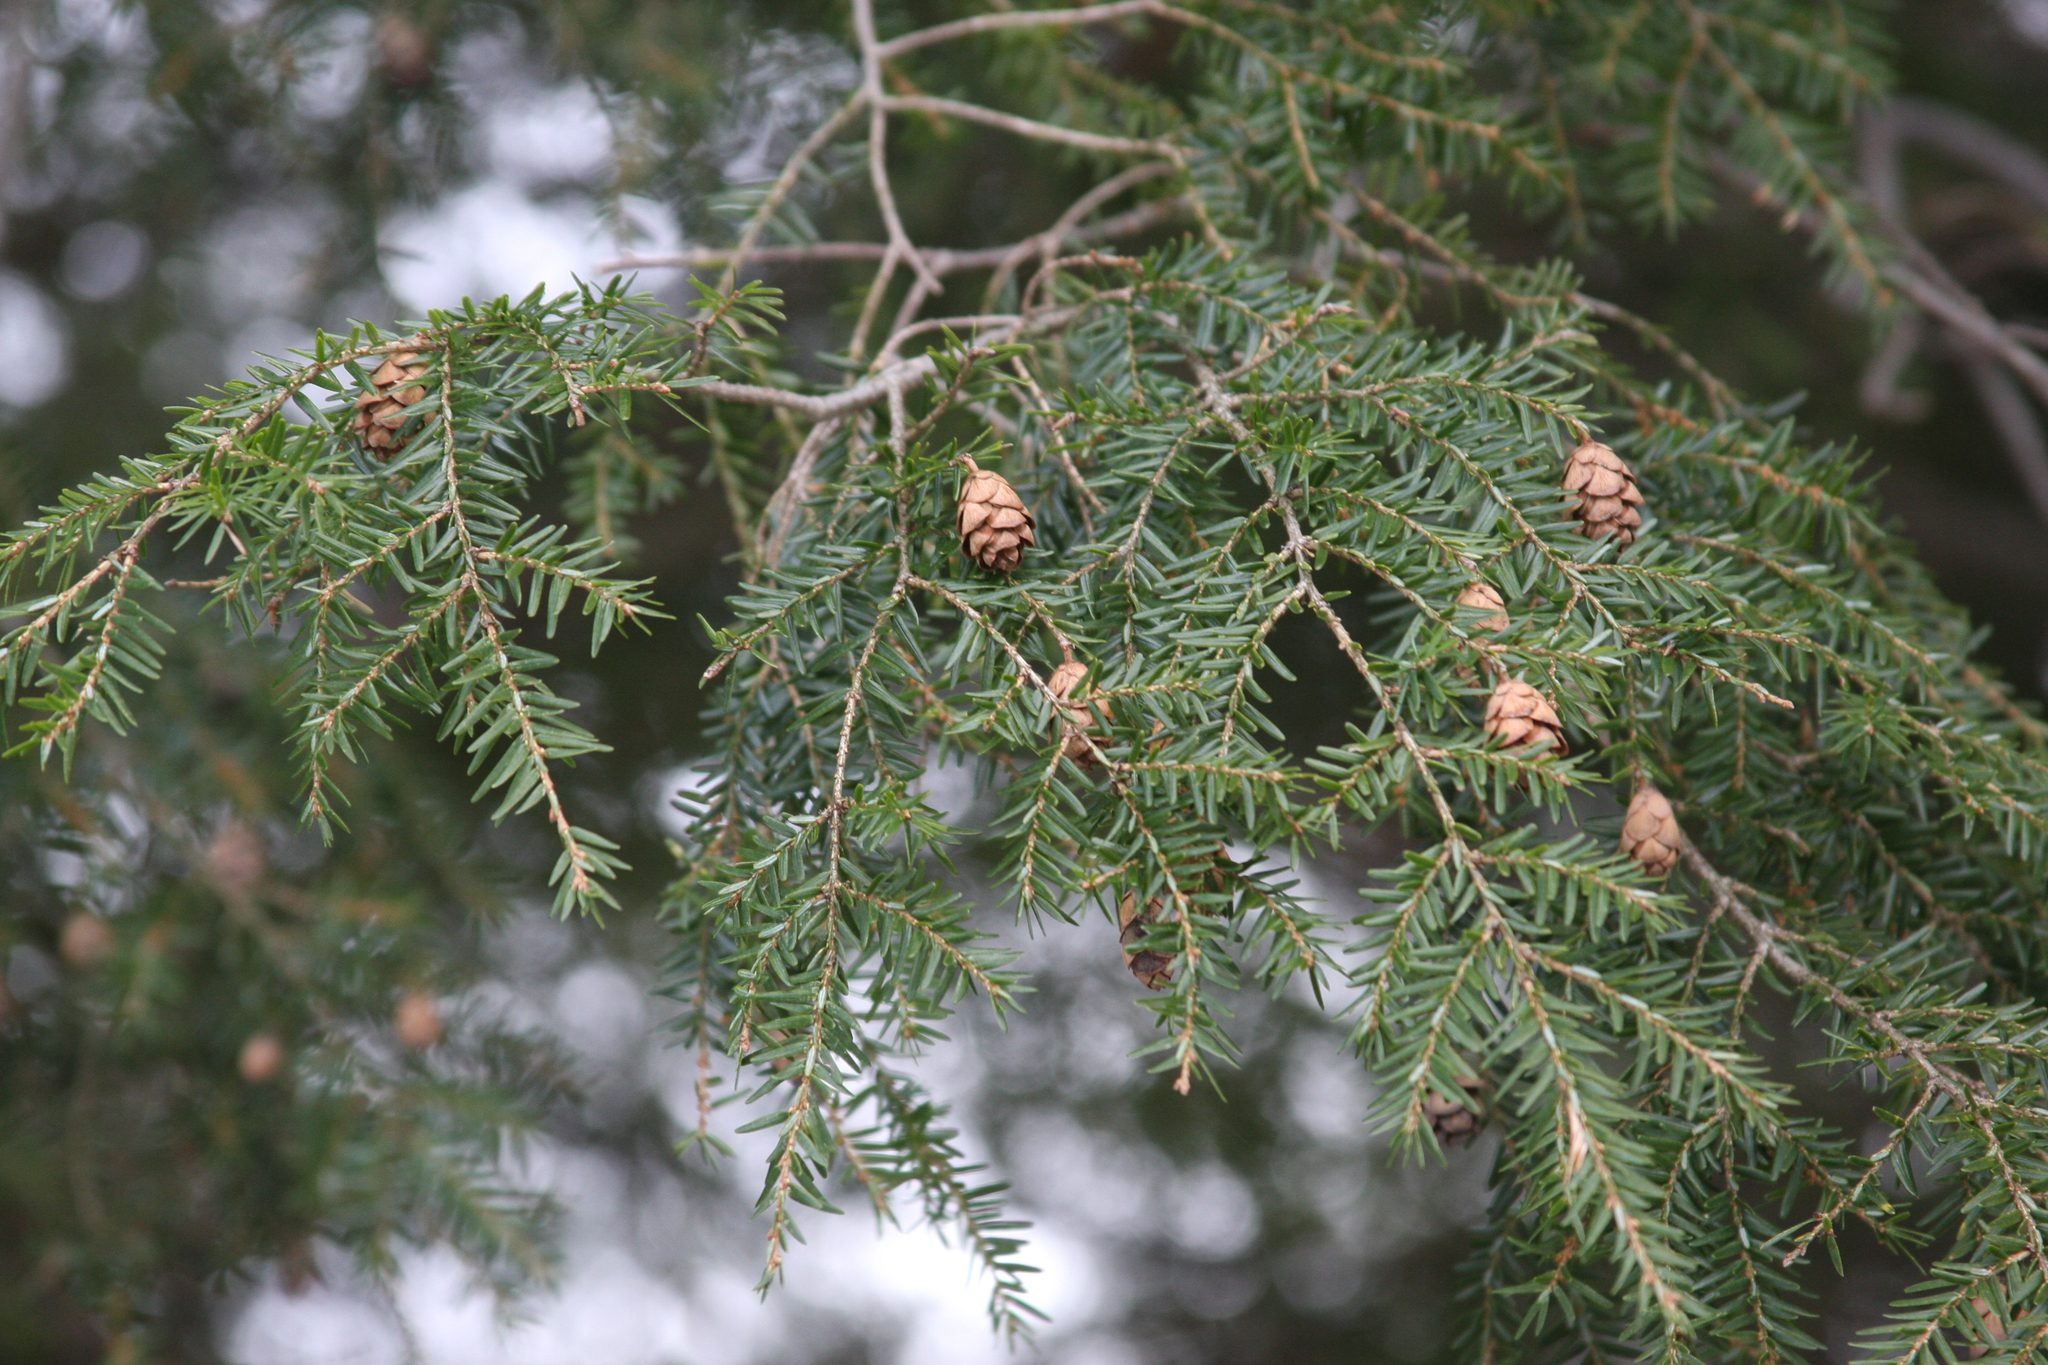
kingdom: Plantae
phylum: Tracheophyta
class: Pinopsida
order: Pinales
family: Pinaceae
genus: Tsuga
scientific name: Tsuga canadensis
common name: Eastern hemlock
